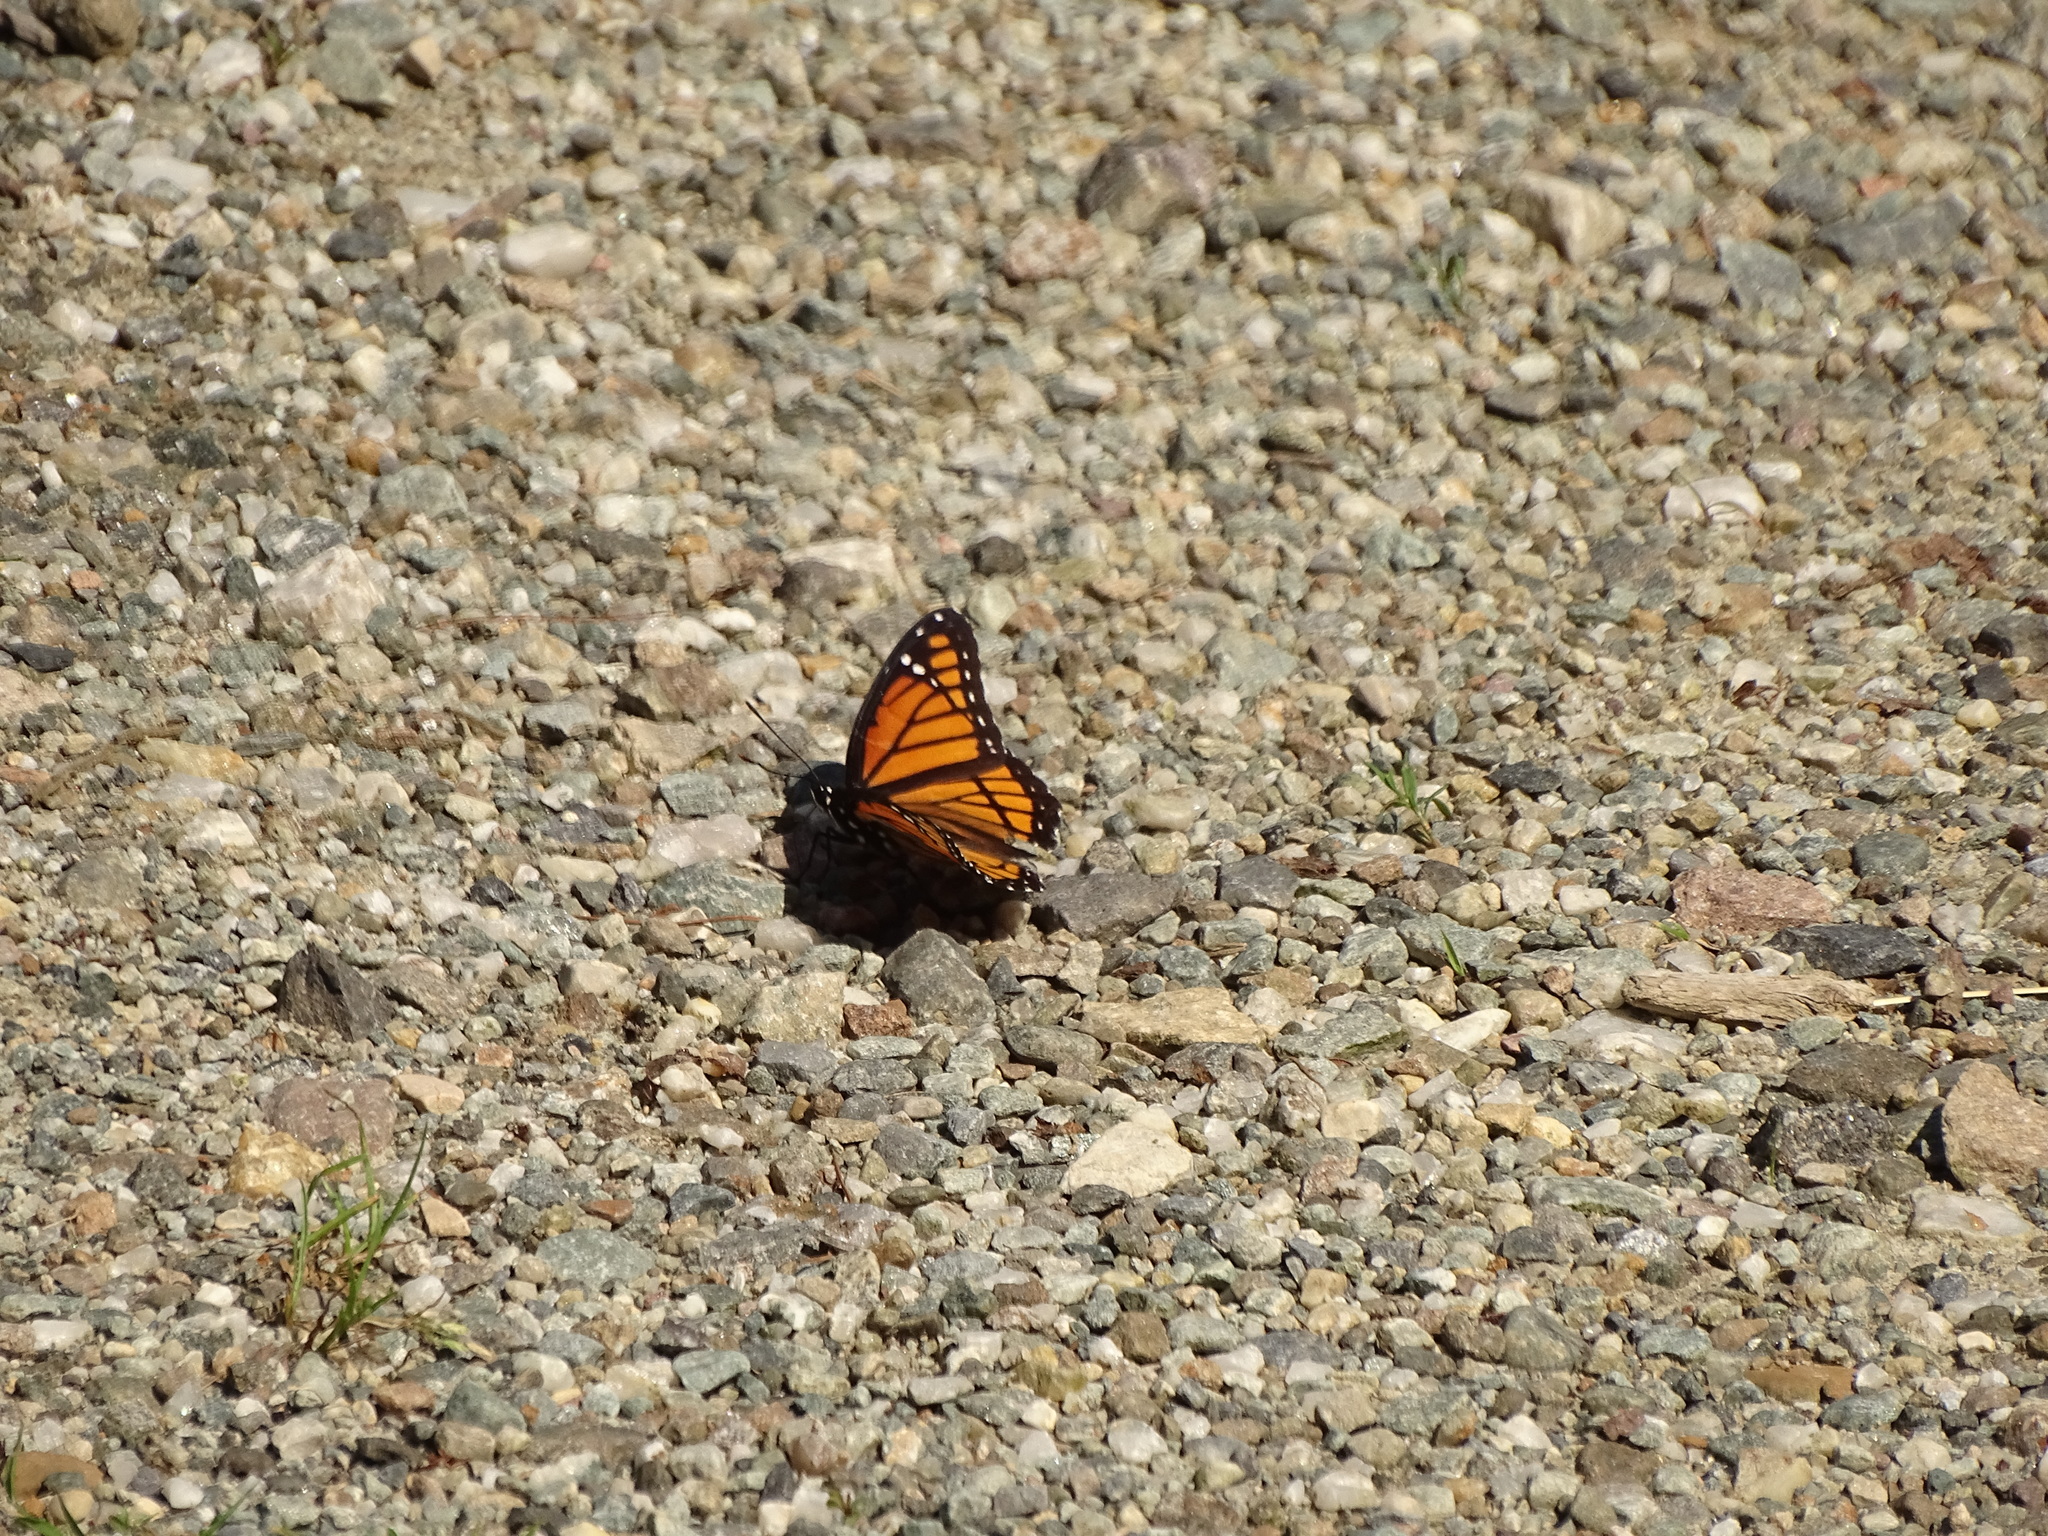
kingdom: Animalia
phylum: Arthropoda
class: Insecta
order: Lepidoptera
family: Nymphalidae
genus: Limenitis
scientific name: Limenitis archippus
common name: Viceroy
